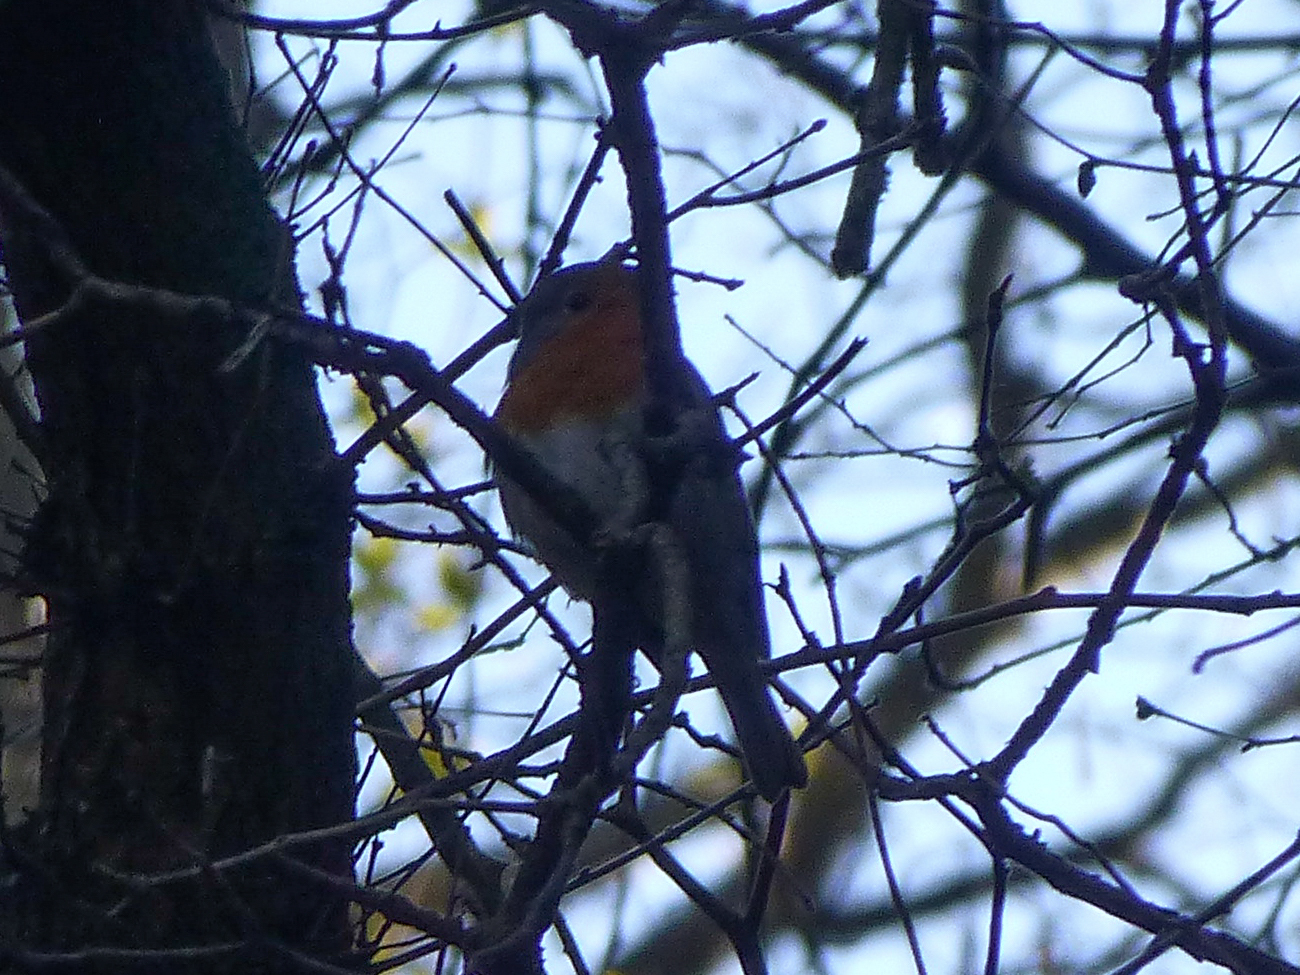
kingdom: Animalia
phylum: Chordata
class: Aves
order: Passeriformes
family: Muscicapidae
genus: Erithacus
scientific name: Erithacus rubecula
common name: European robin
